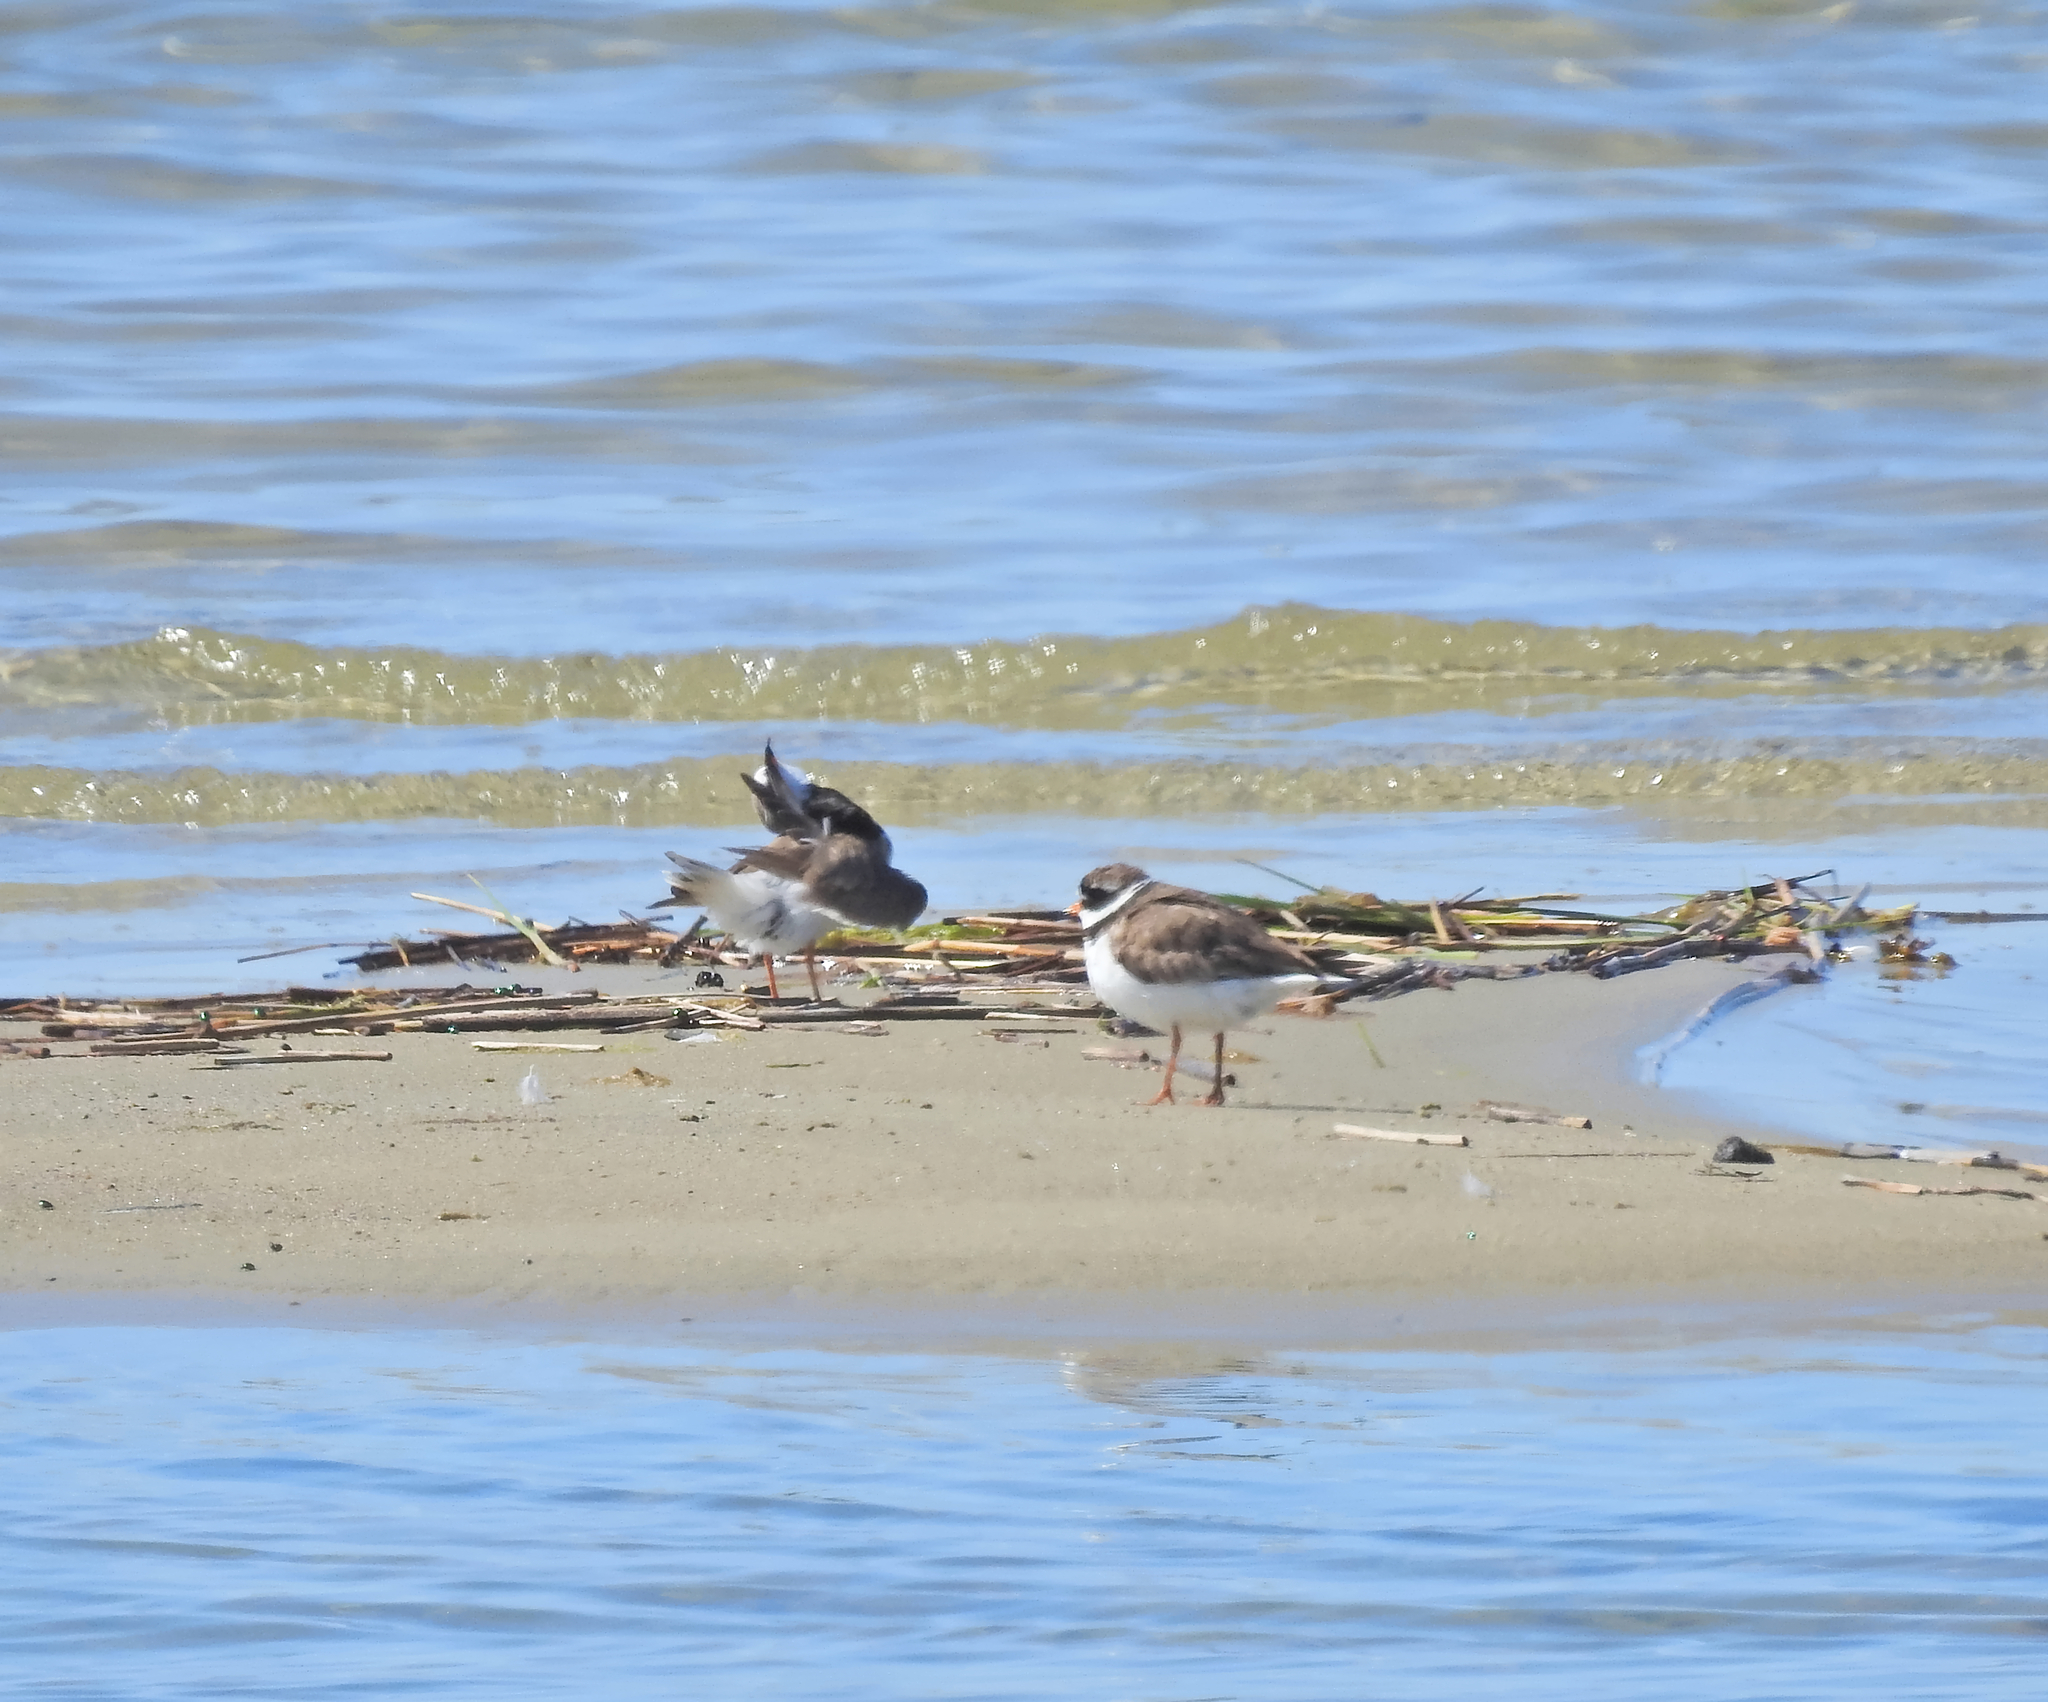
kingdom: Animalia
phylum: Chordata
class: Aves
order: Charadriiformes
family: Charadriidae
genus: Charadrius
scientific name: Charadrius hiaticula
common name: Common ringed plover
